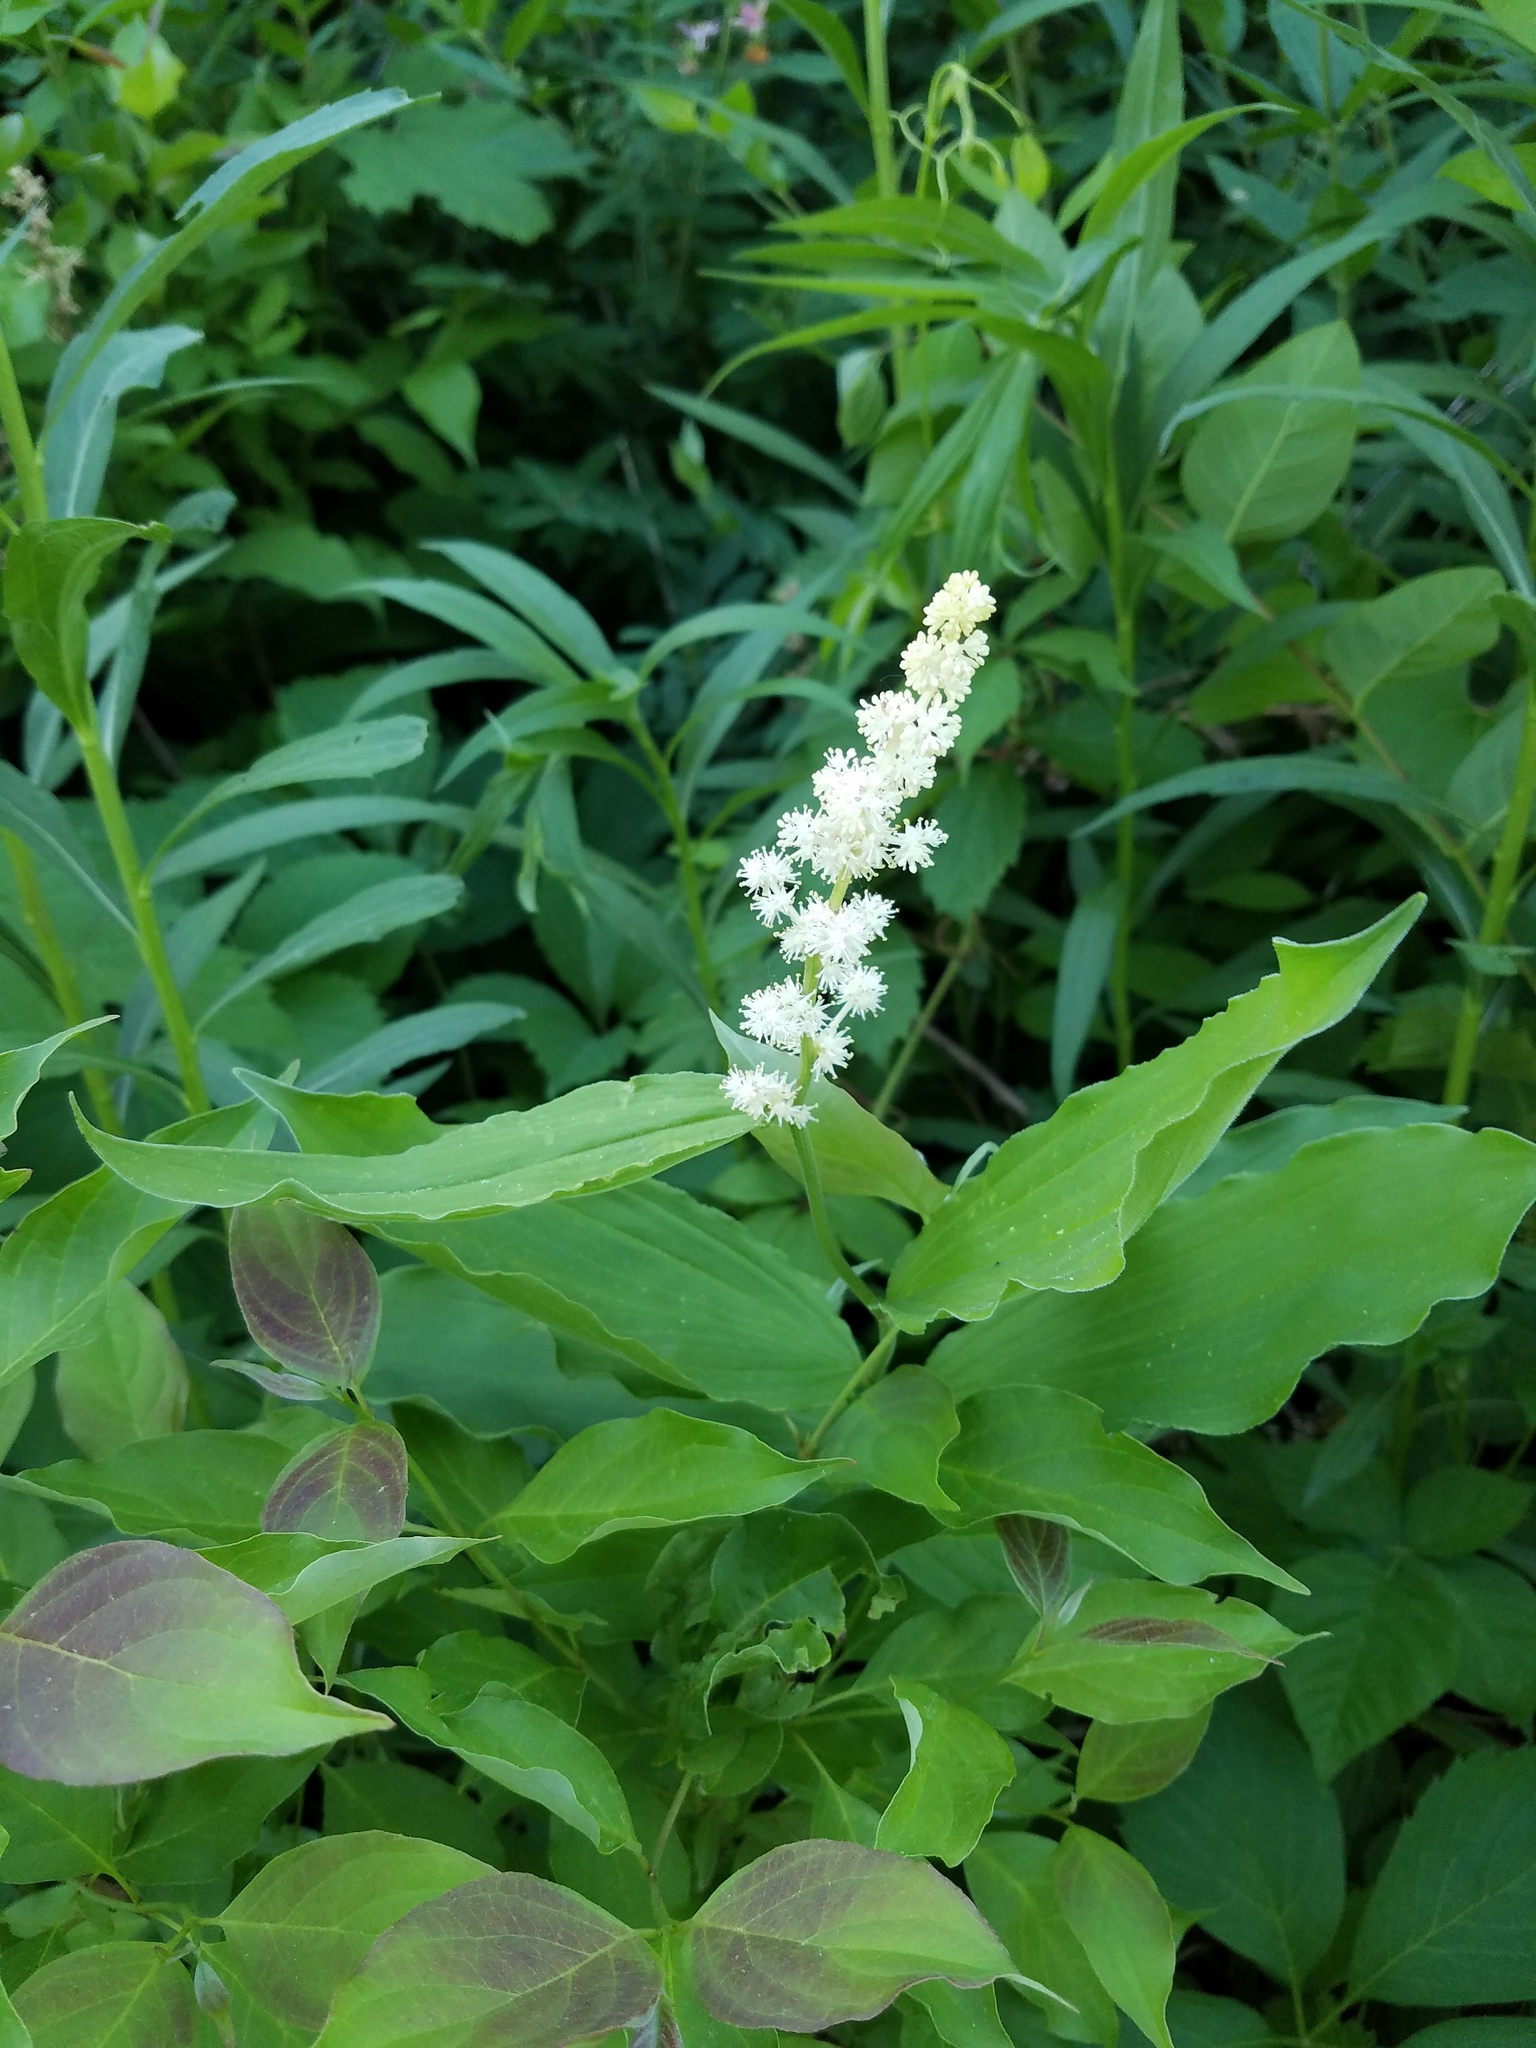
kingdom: Plantae
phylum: Tracheophyta
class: Liliopsida
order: Asparagales
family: Asparagaceae
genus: Maianthemum
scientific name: Maianthemum racemosum
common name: False spikenard
